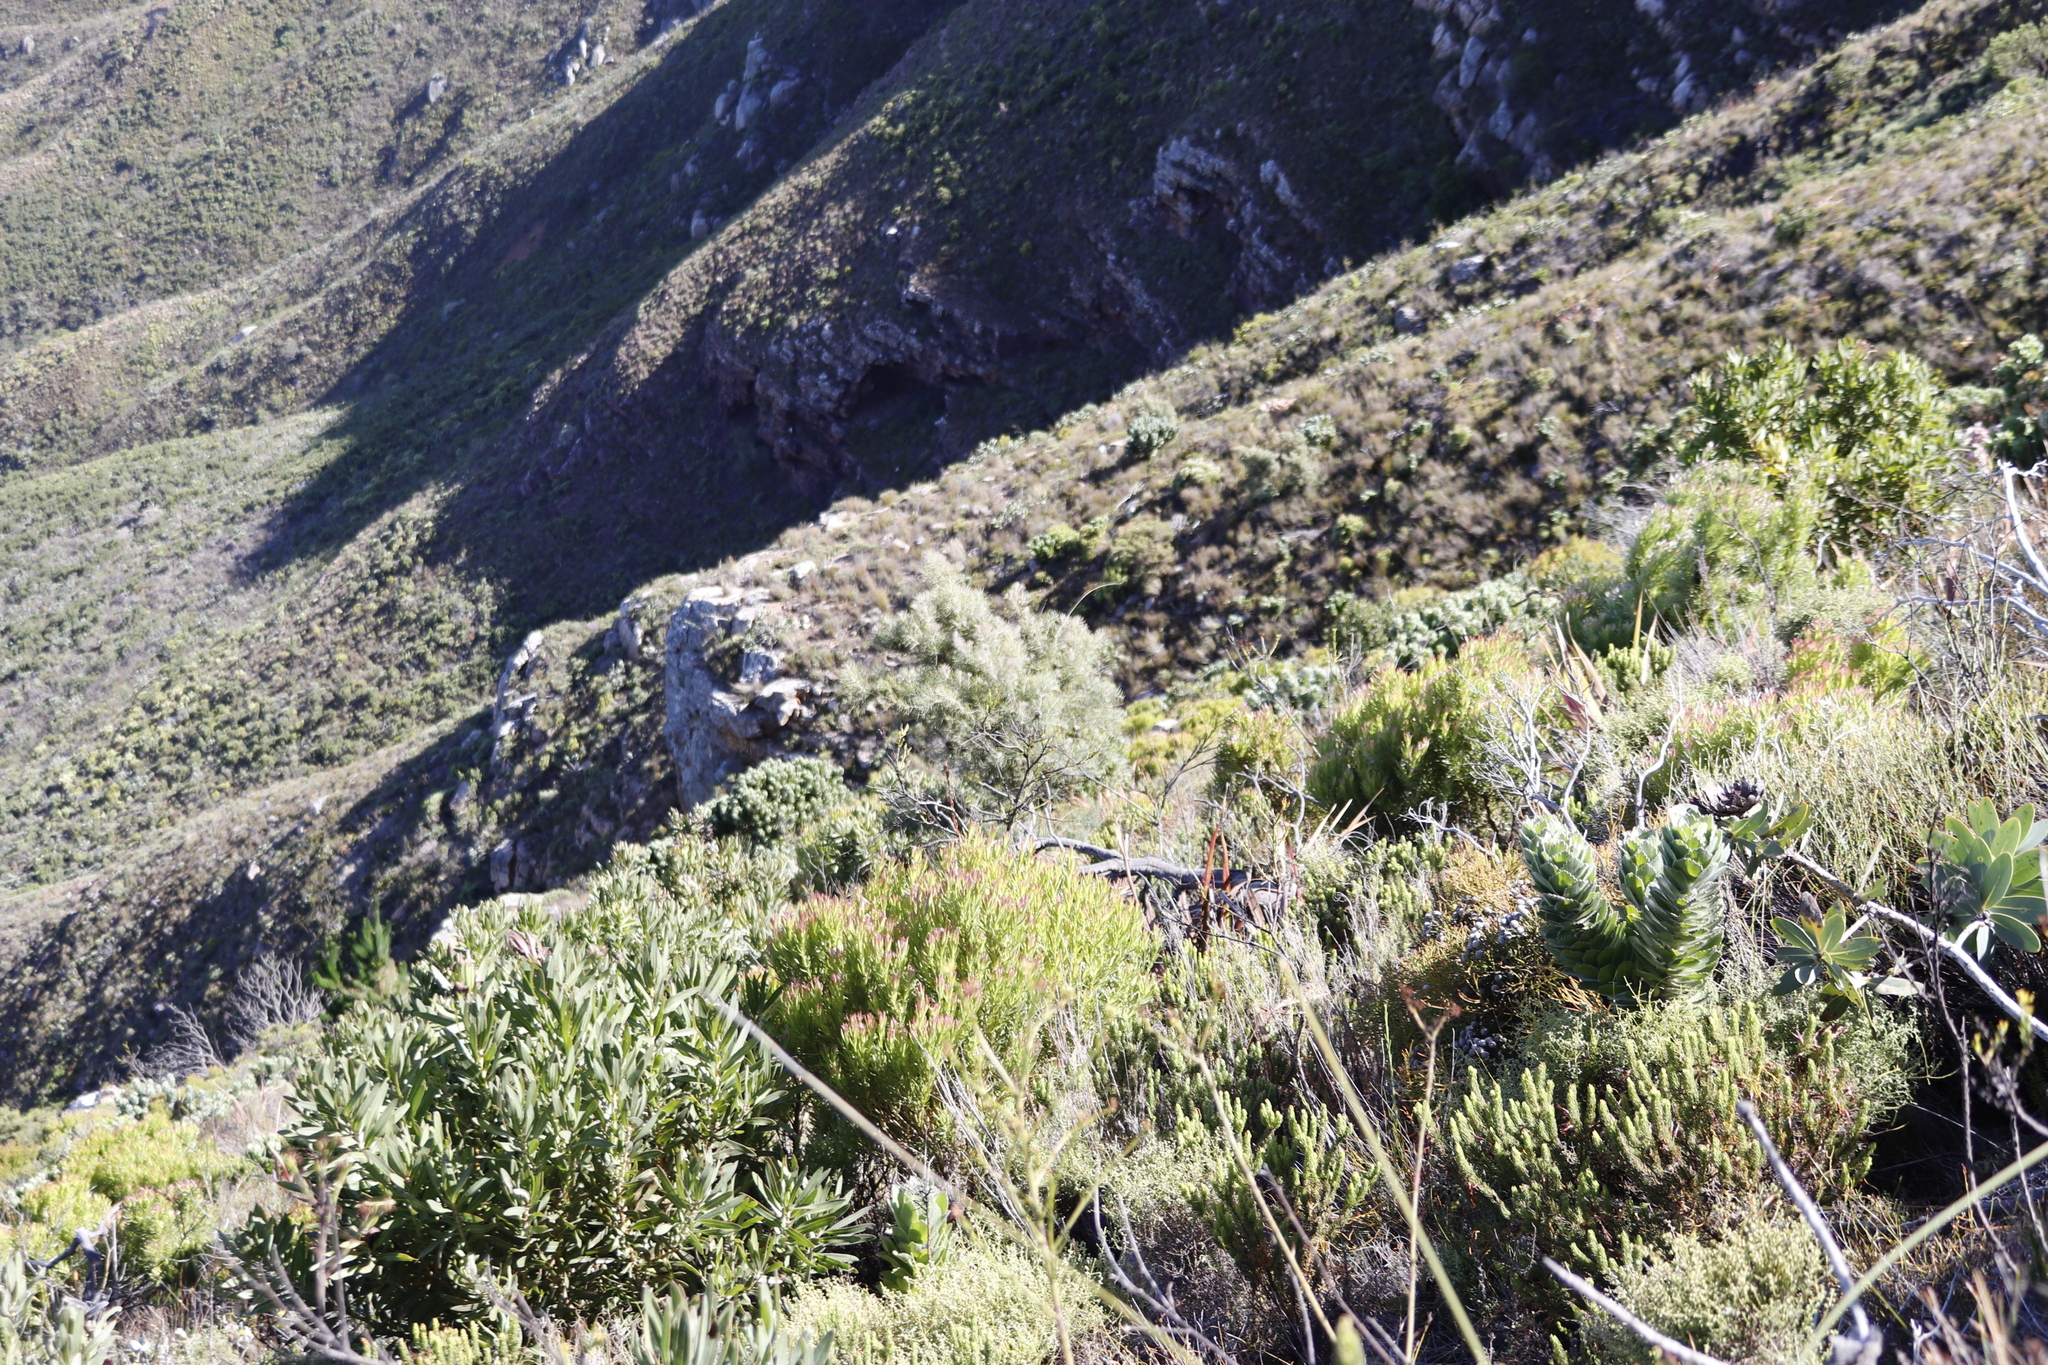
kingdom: Plantae
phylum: Tracheophyta
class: Magnoliopsida
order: Proteales
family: Proteaceae
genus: Hakea
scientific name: Hakea gibbosa
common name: Rock hakea
